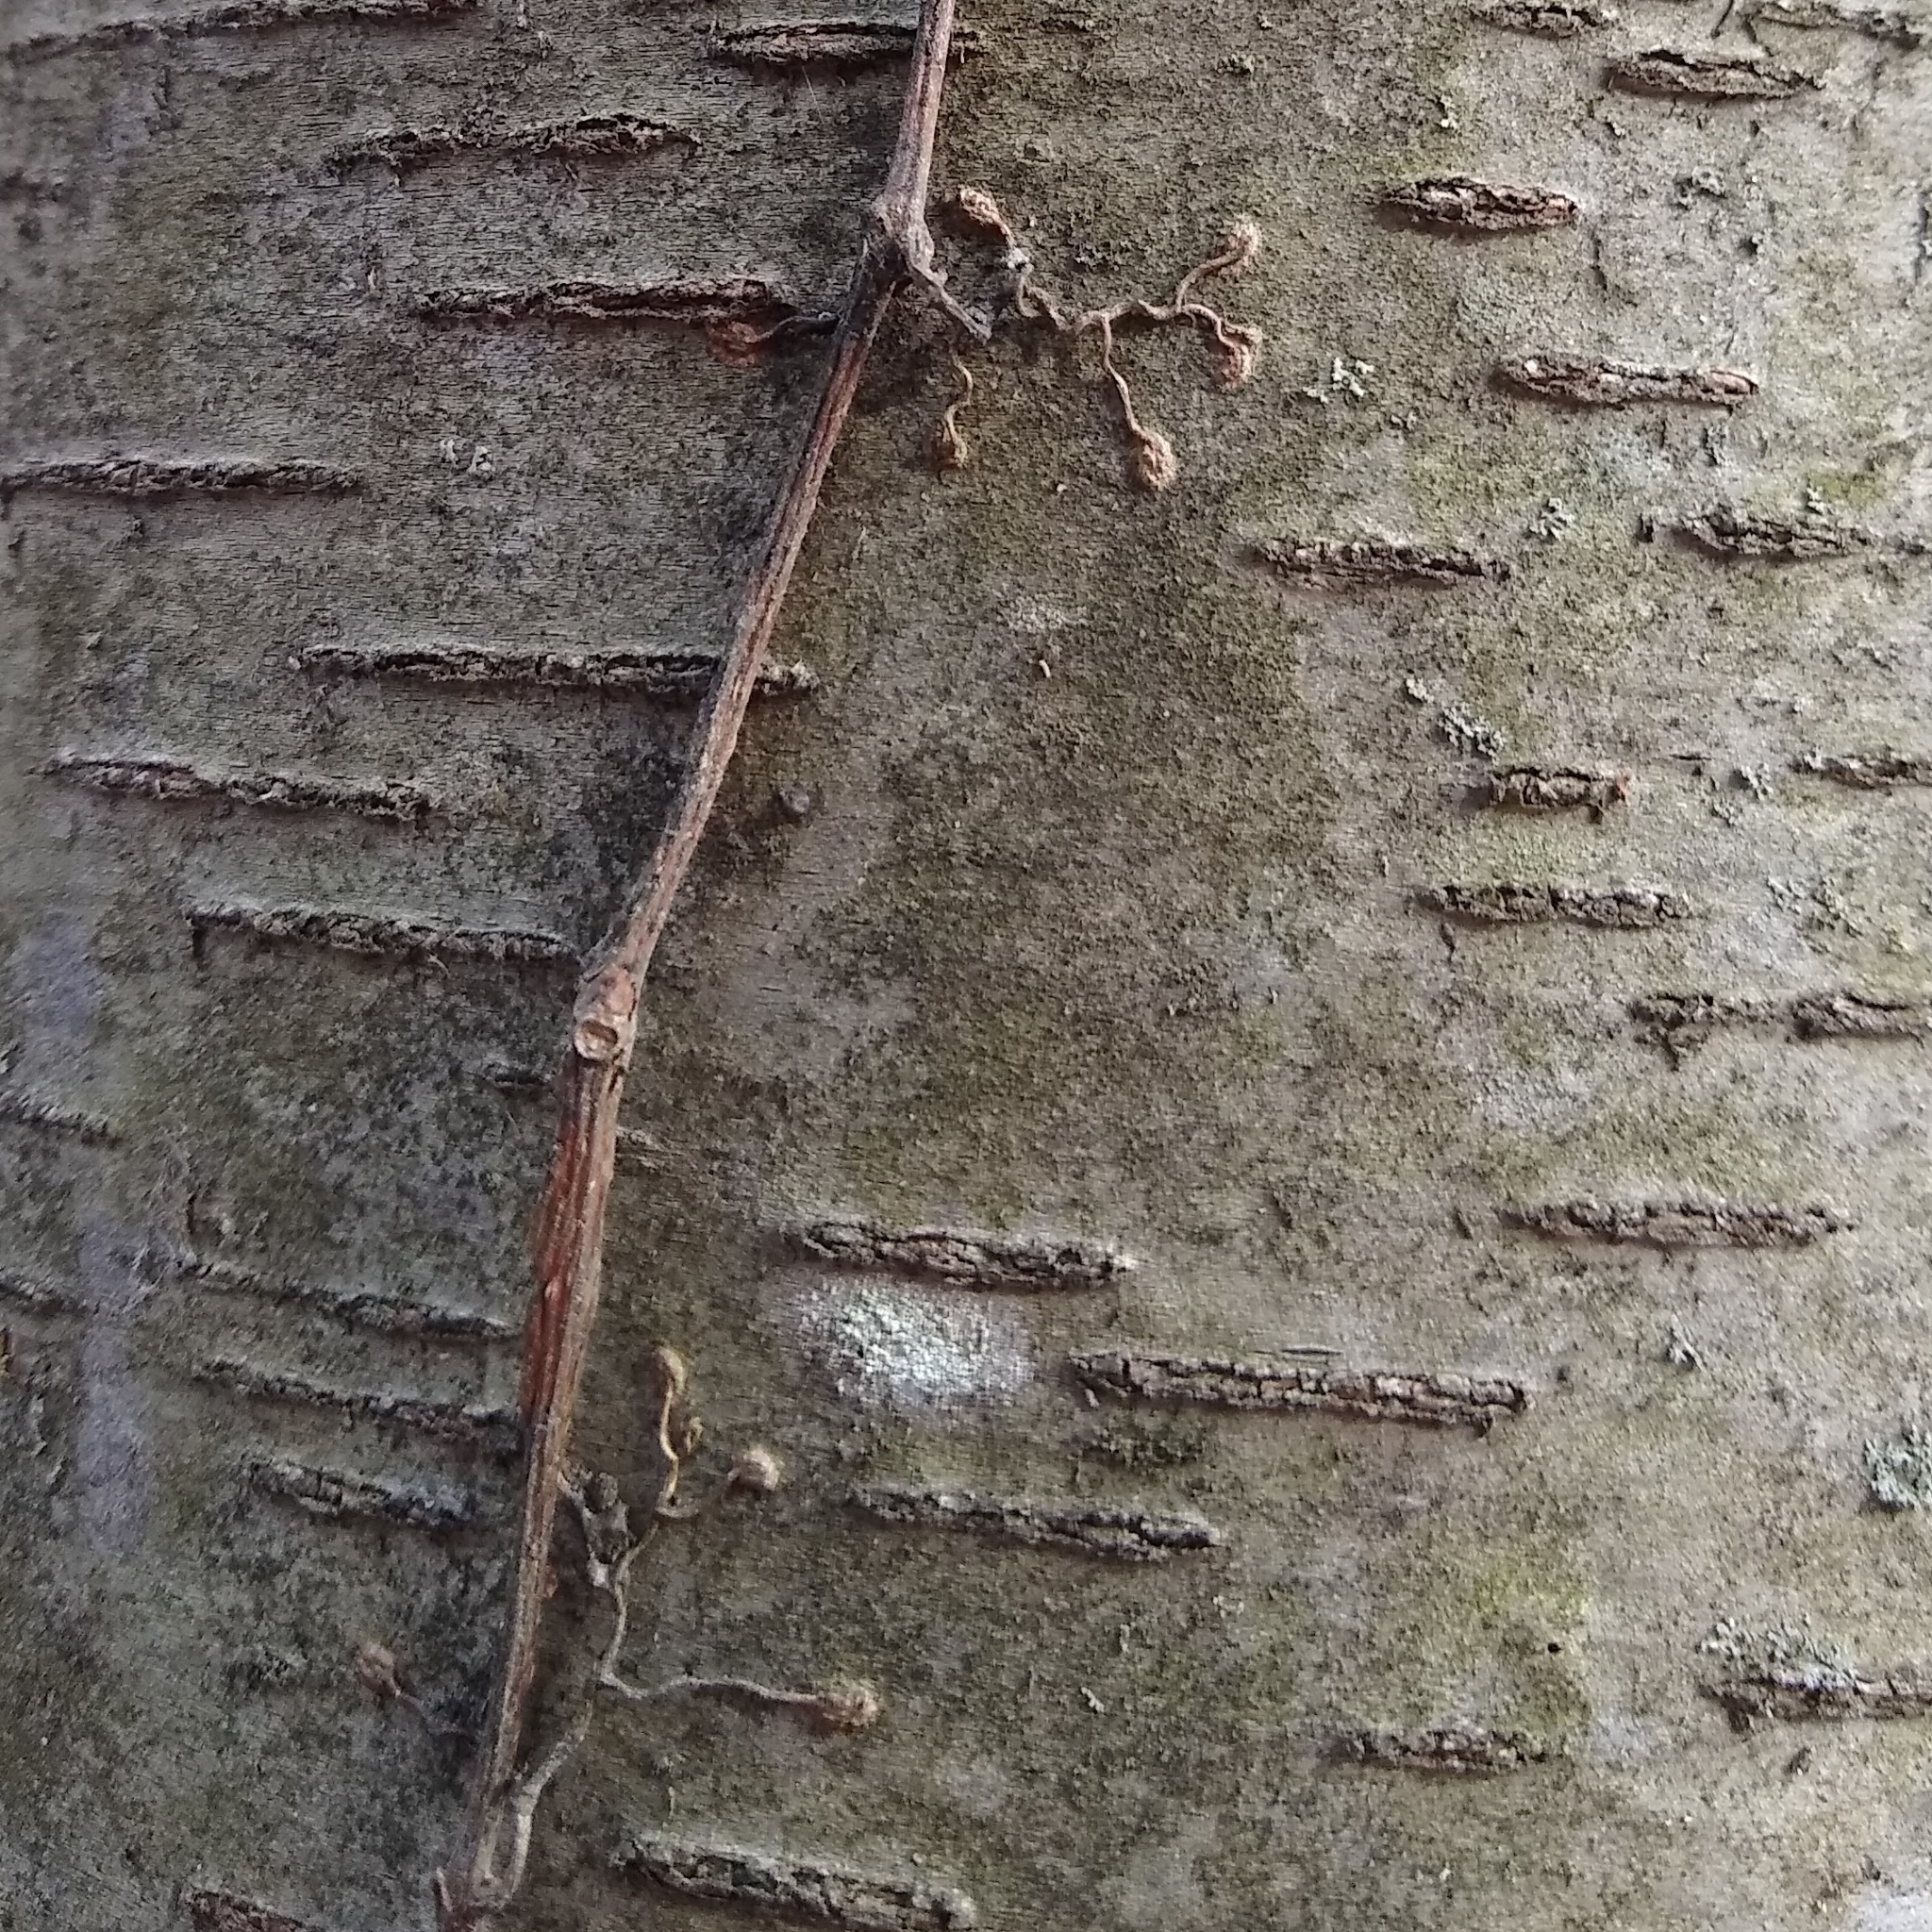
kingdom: Plantae
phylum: Tracheophyta
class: Magnoliopsida
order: Vitales
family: Vitaceae
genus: Parthenocissus
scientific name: Parthenocissus quinquefolia
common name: Virginia-creeper
